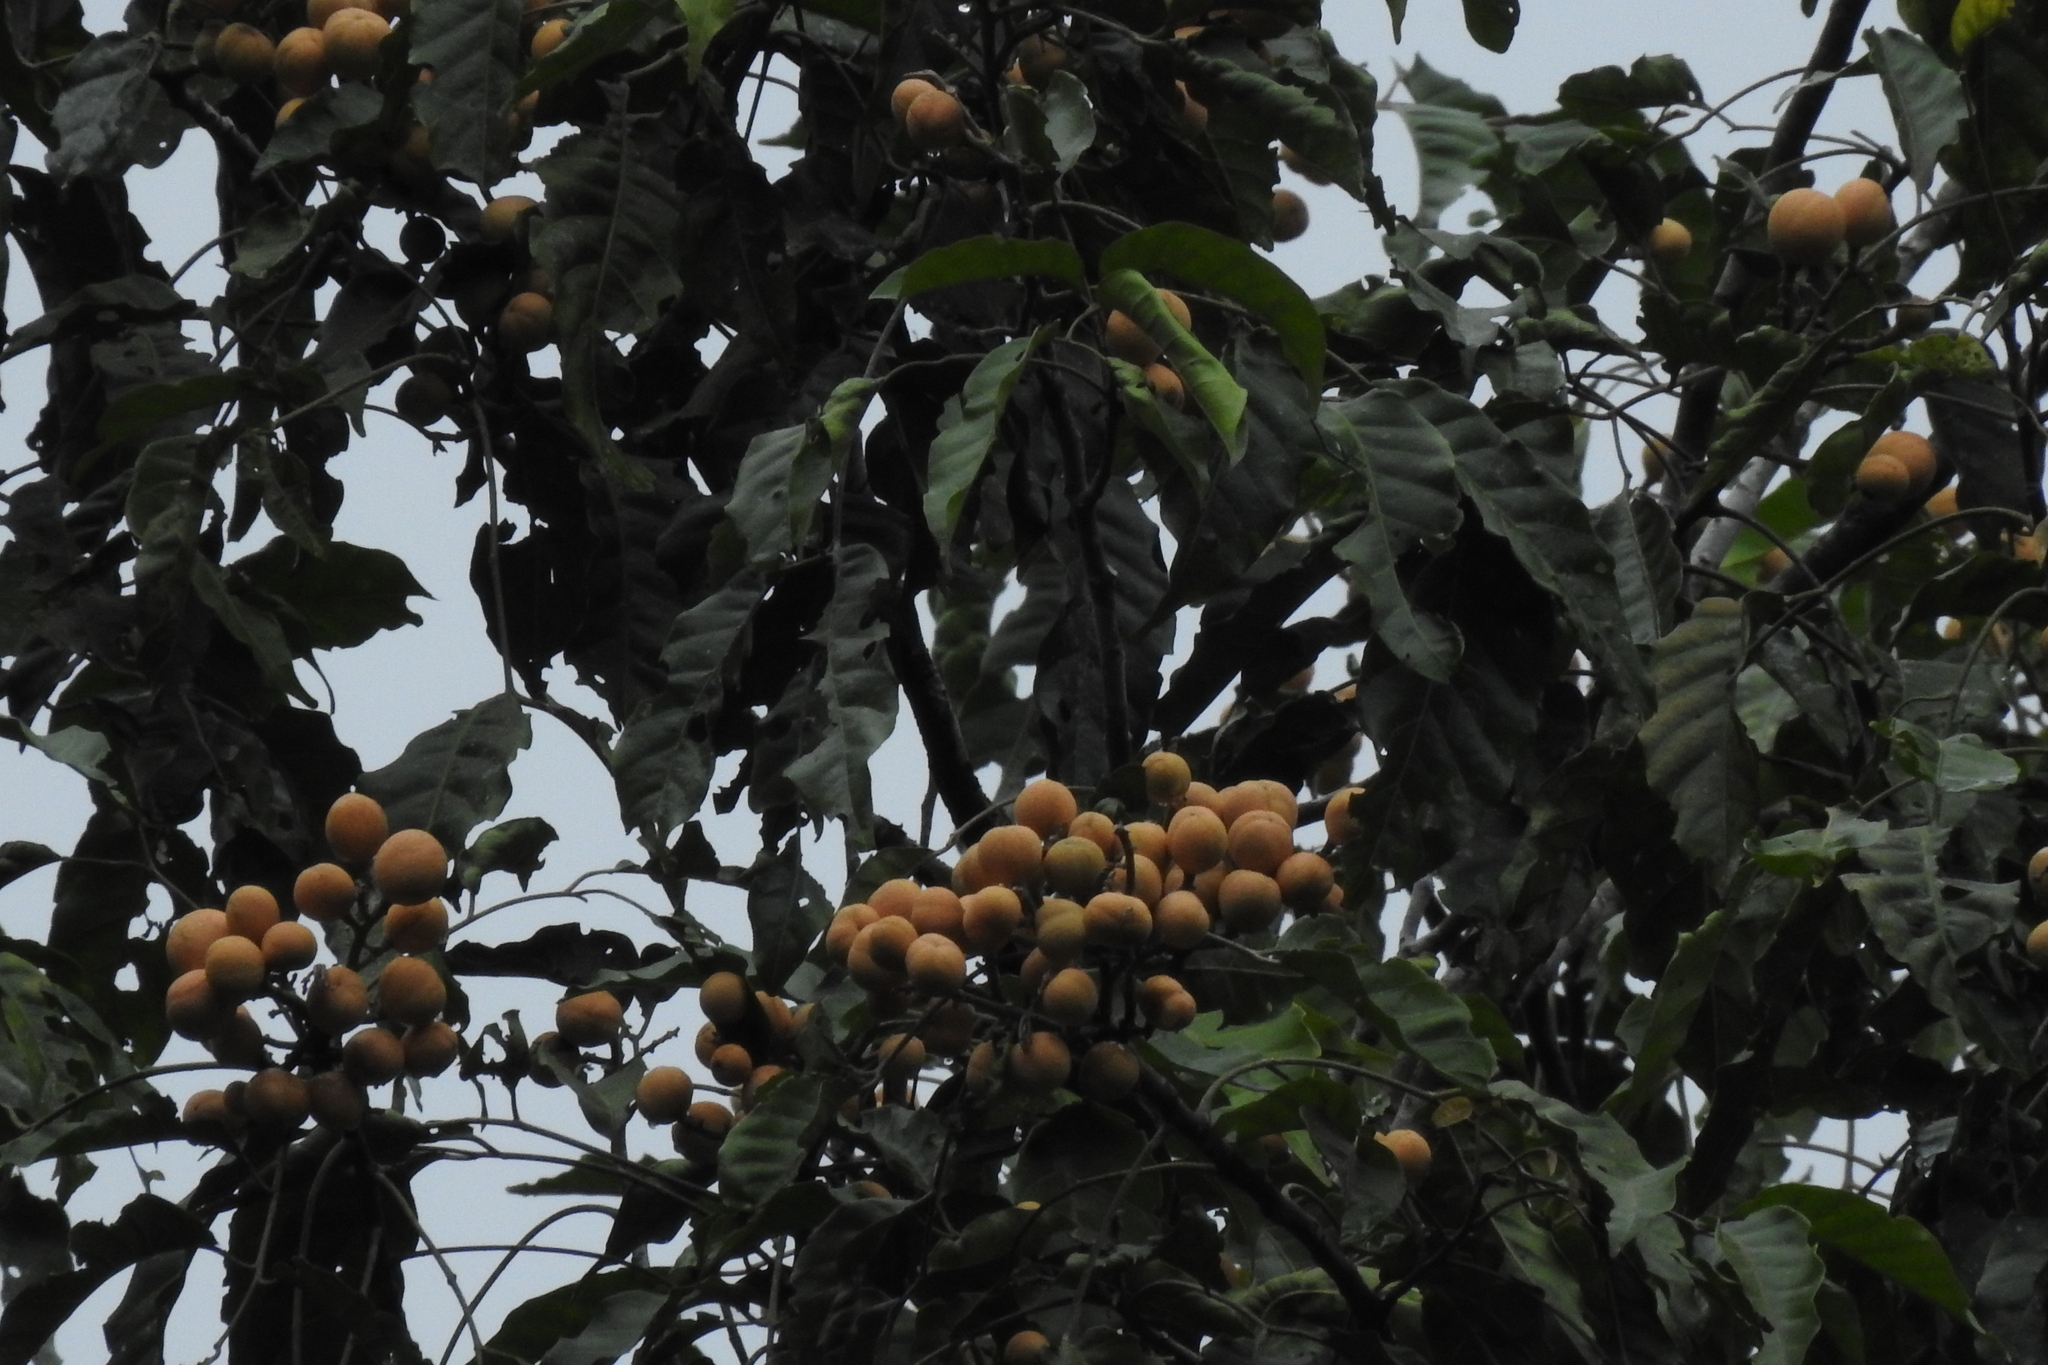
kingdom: Plantae
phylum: Tracheophyta
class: Magnoliopsida
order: Sapindales
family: Meliaceae
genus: Aglaia
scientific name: Aglaia lawii
